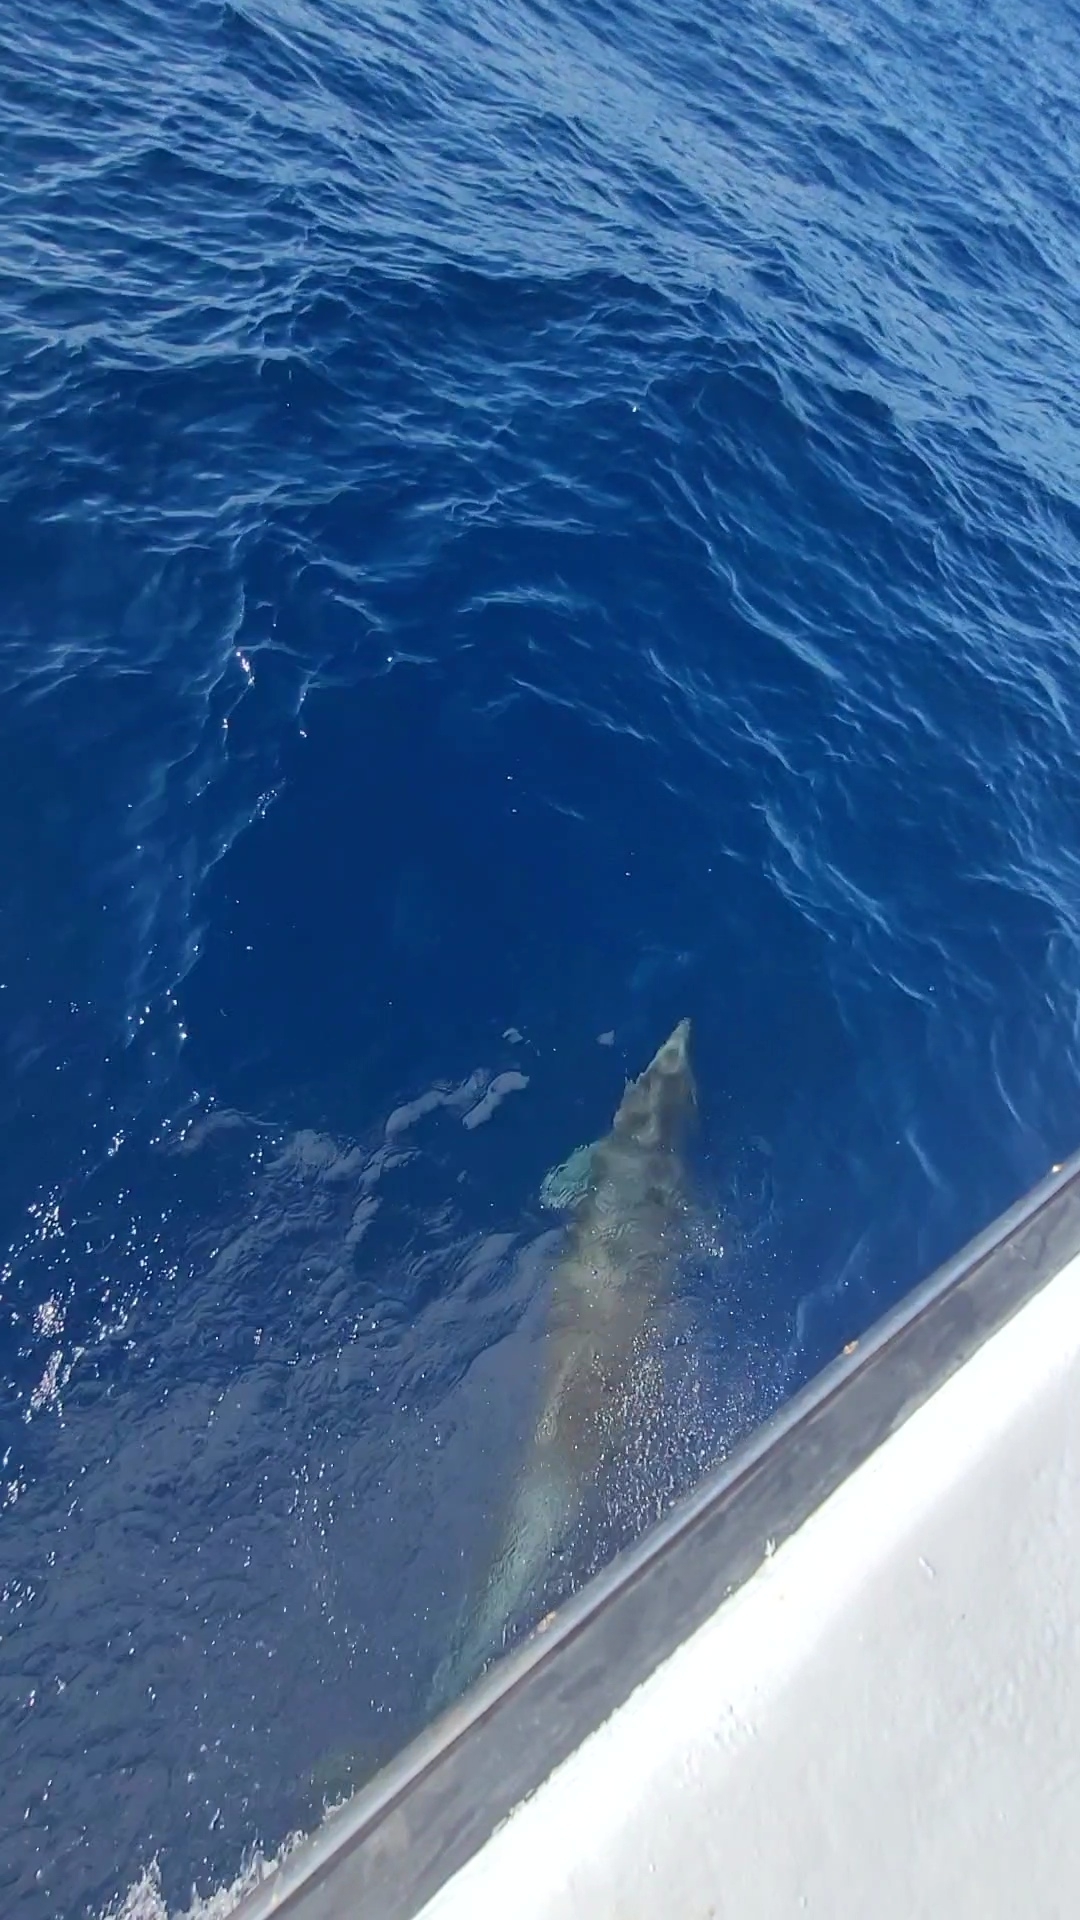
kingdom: Animalia
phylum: Chordata
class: Mammalia
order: Cetacea
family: Delphinidae
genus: Tursiops
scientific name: Tursiops truncatus
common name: Bottlenose dolphin
